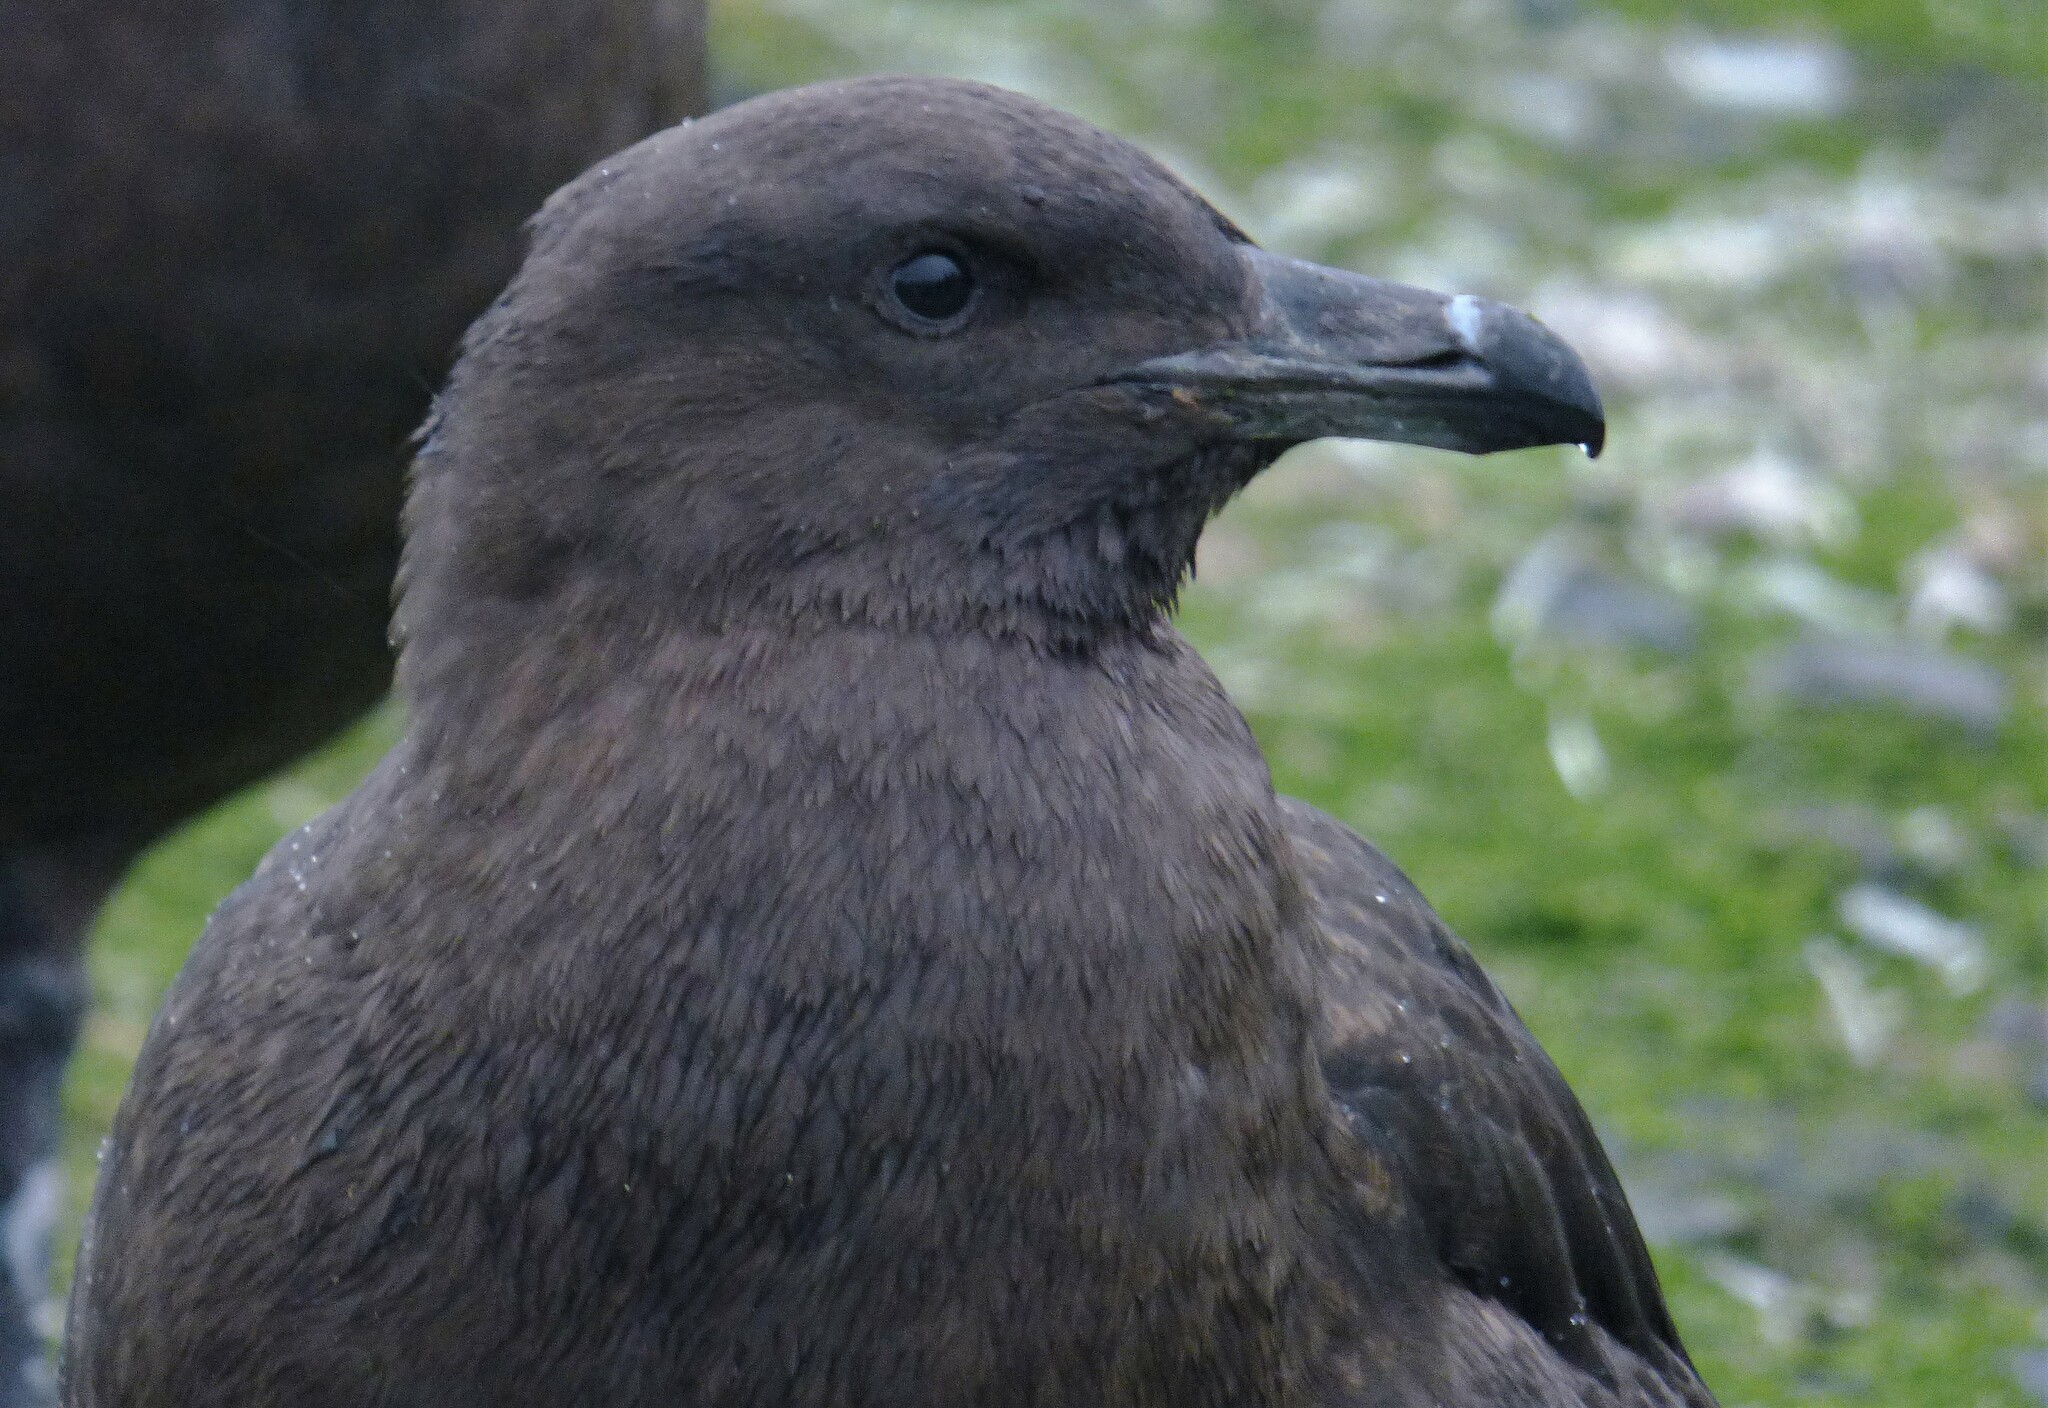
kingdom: Animalia
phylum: Chordata
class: Aves
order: Charadriiformes
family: Stercorariidae
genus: Stercorarius
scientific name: Stercorarius antarcticus
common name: Brown skua
